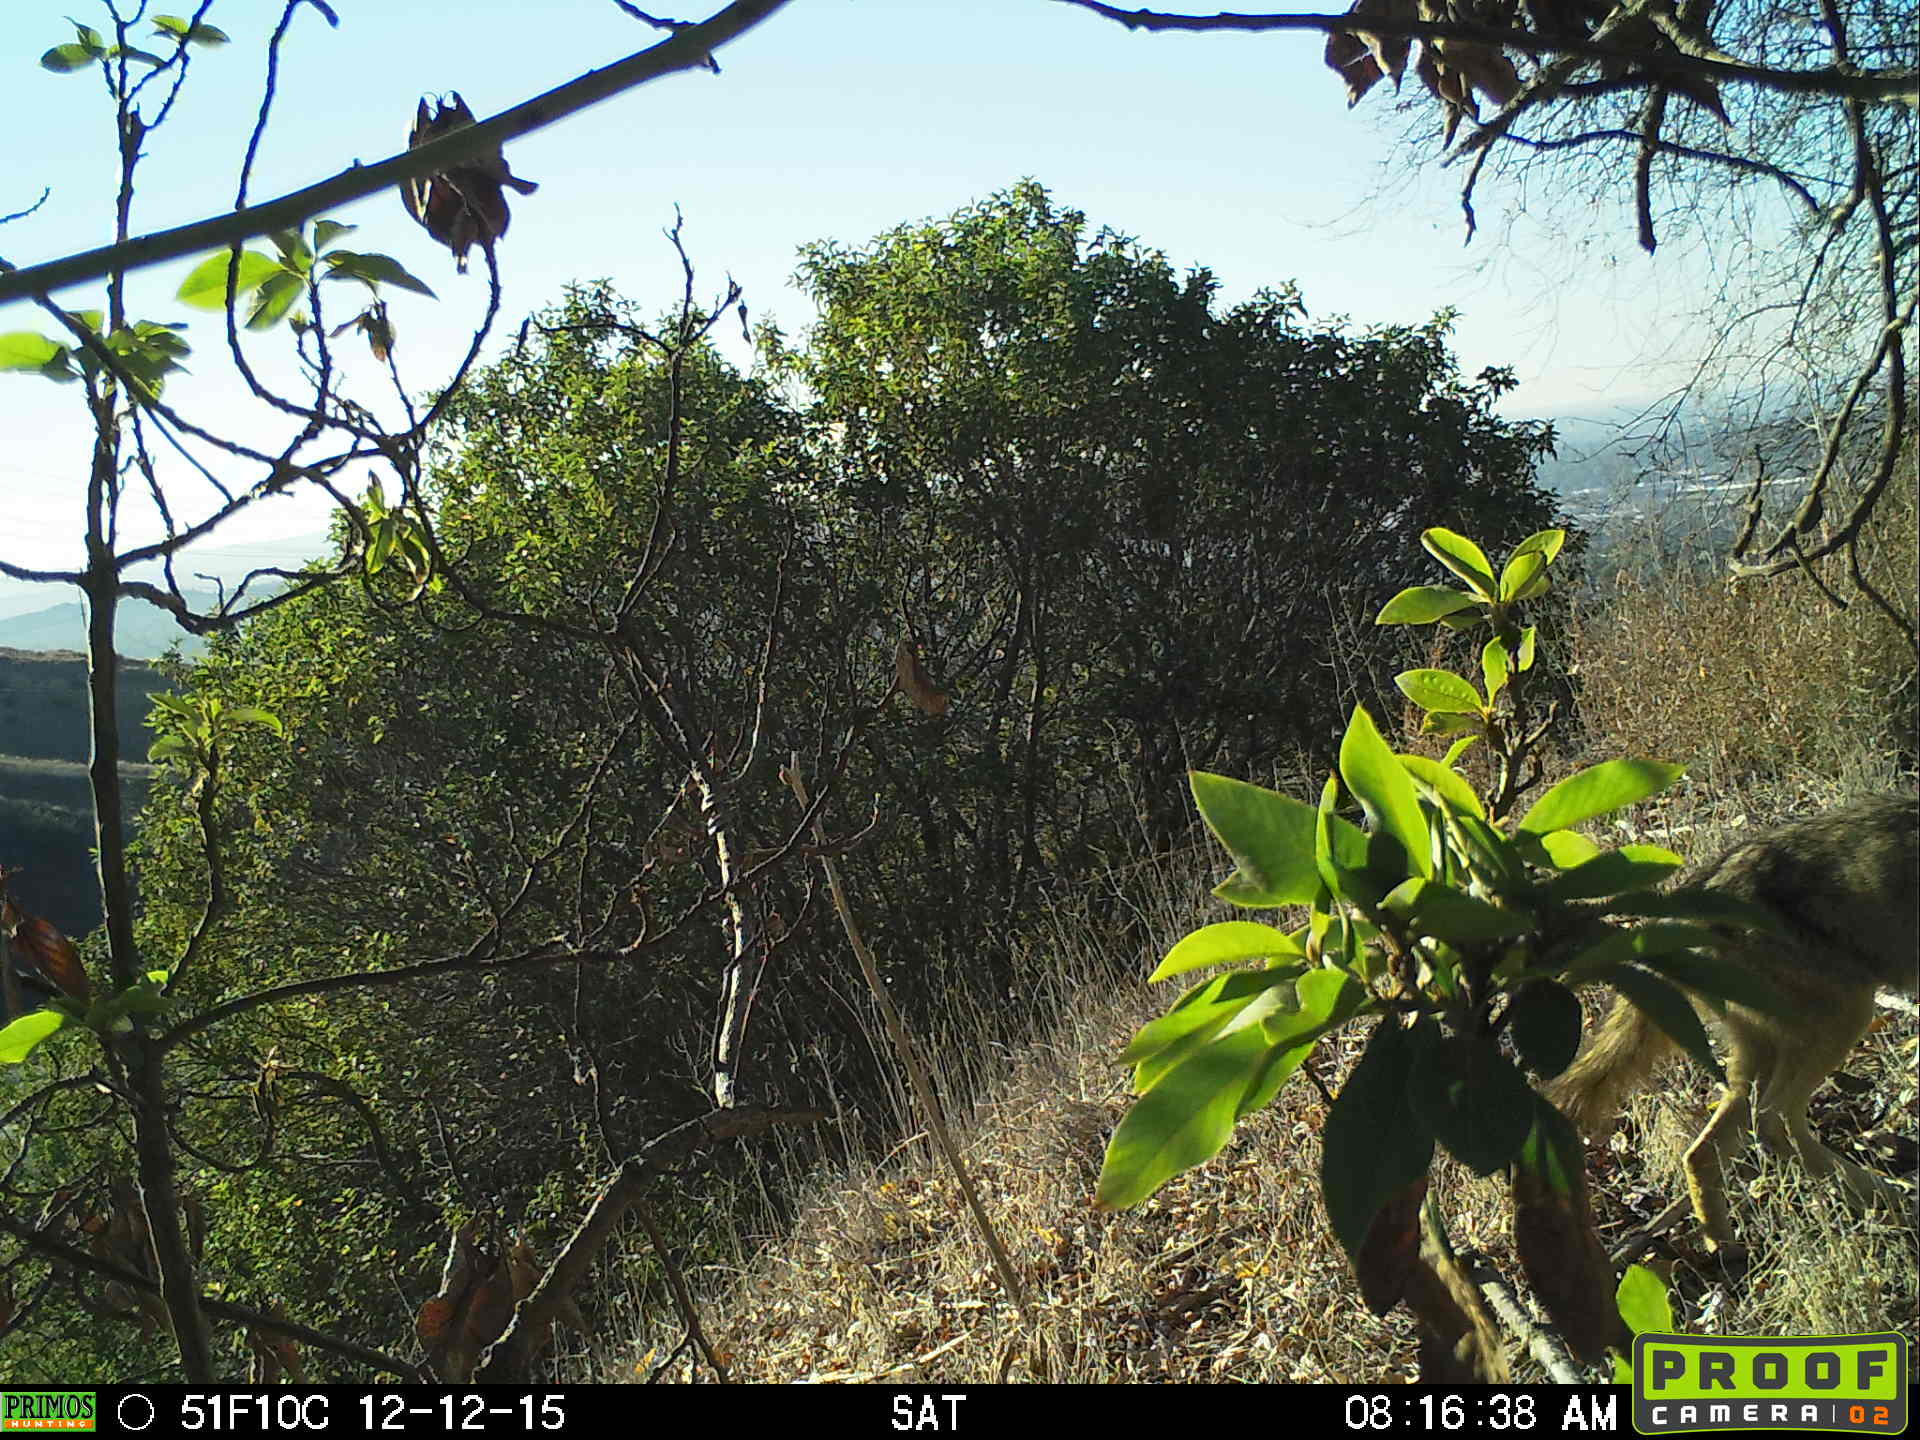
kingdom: Animalia
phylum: Chordata
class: Mammalia
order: Carnivora
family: Canidae
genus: Canis
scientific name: Canis latrans
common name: Coyote
